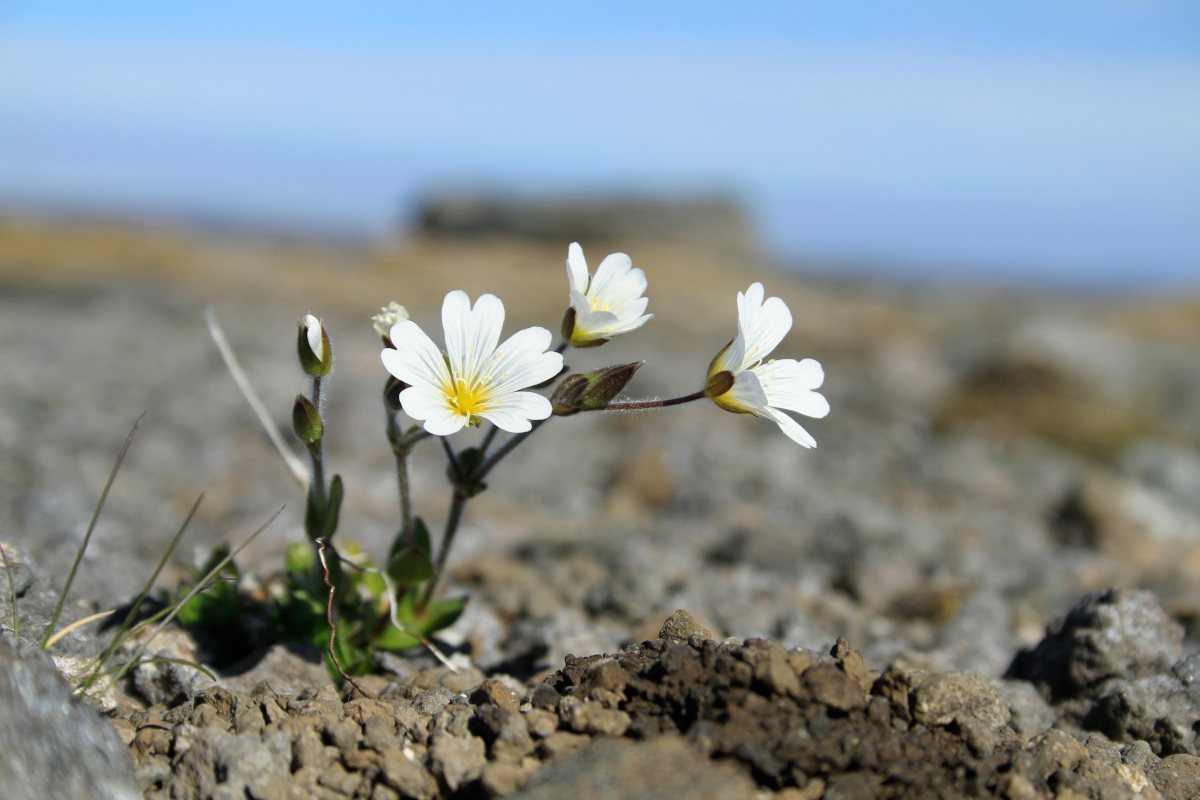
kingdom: Plantae
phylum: Tracheophyta
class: Magnoliopsida
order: Caryophyllales
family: Caryophyllaceae
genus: Cerastium
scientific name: Cerastium fontanum
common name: Common mouse-ear
